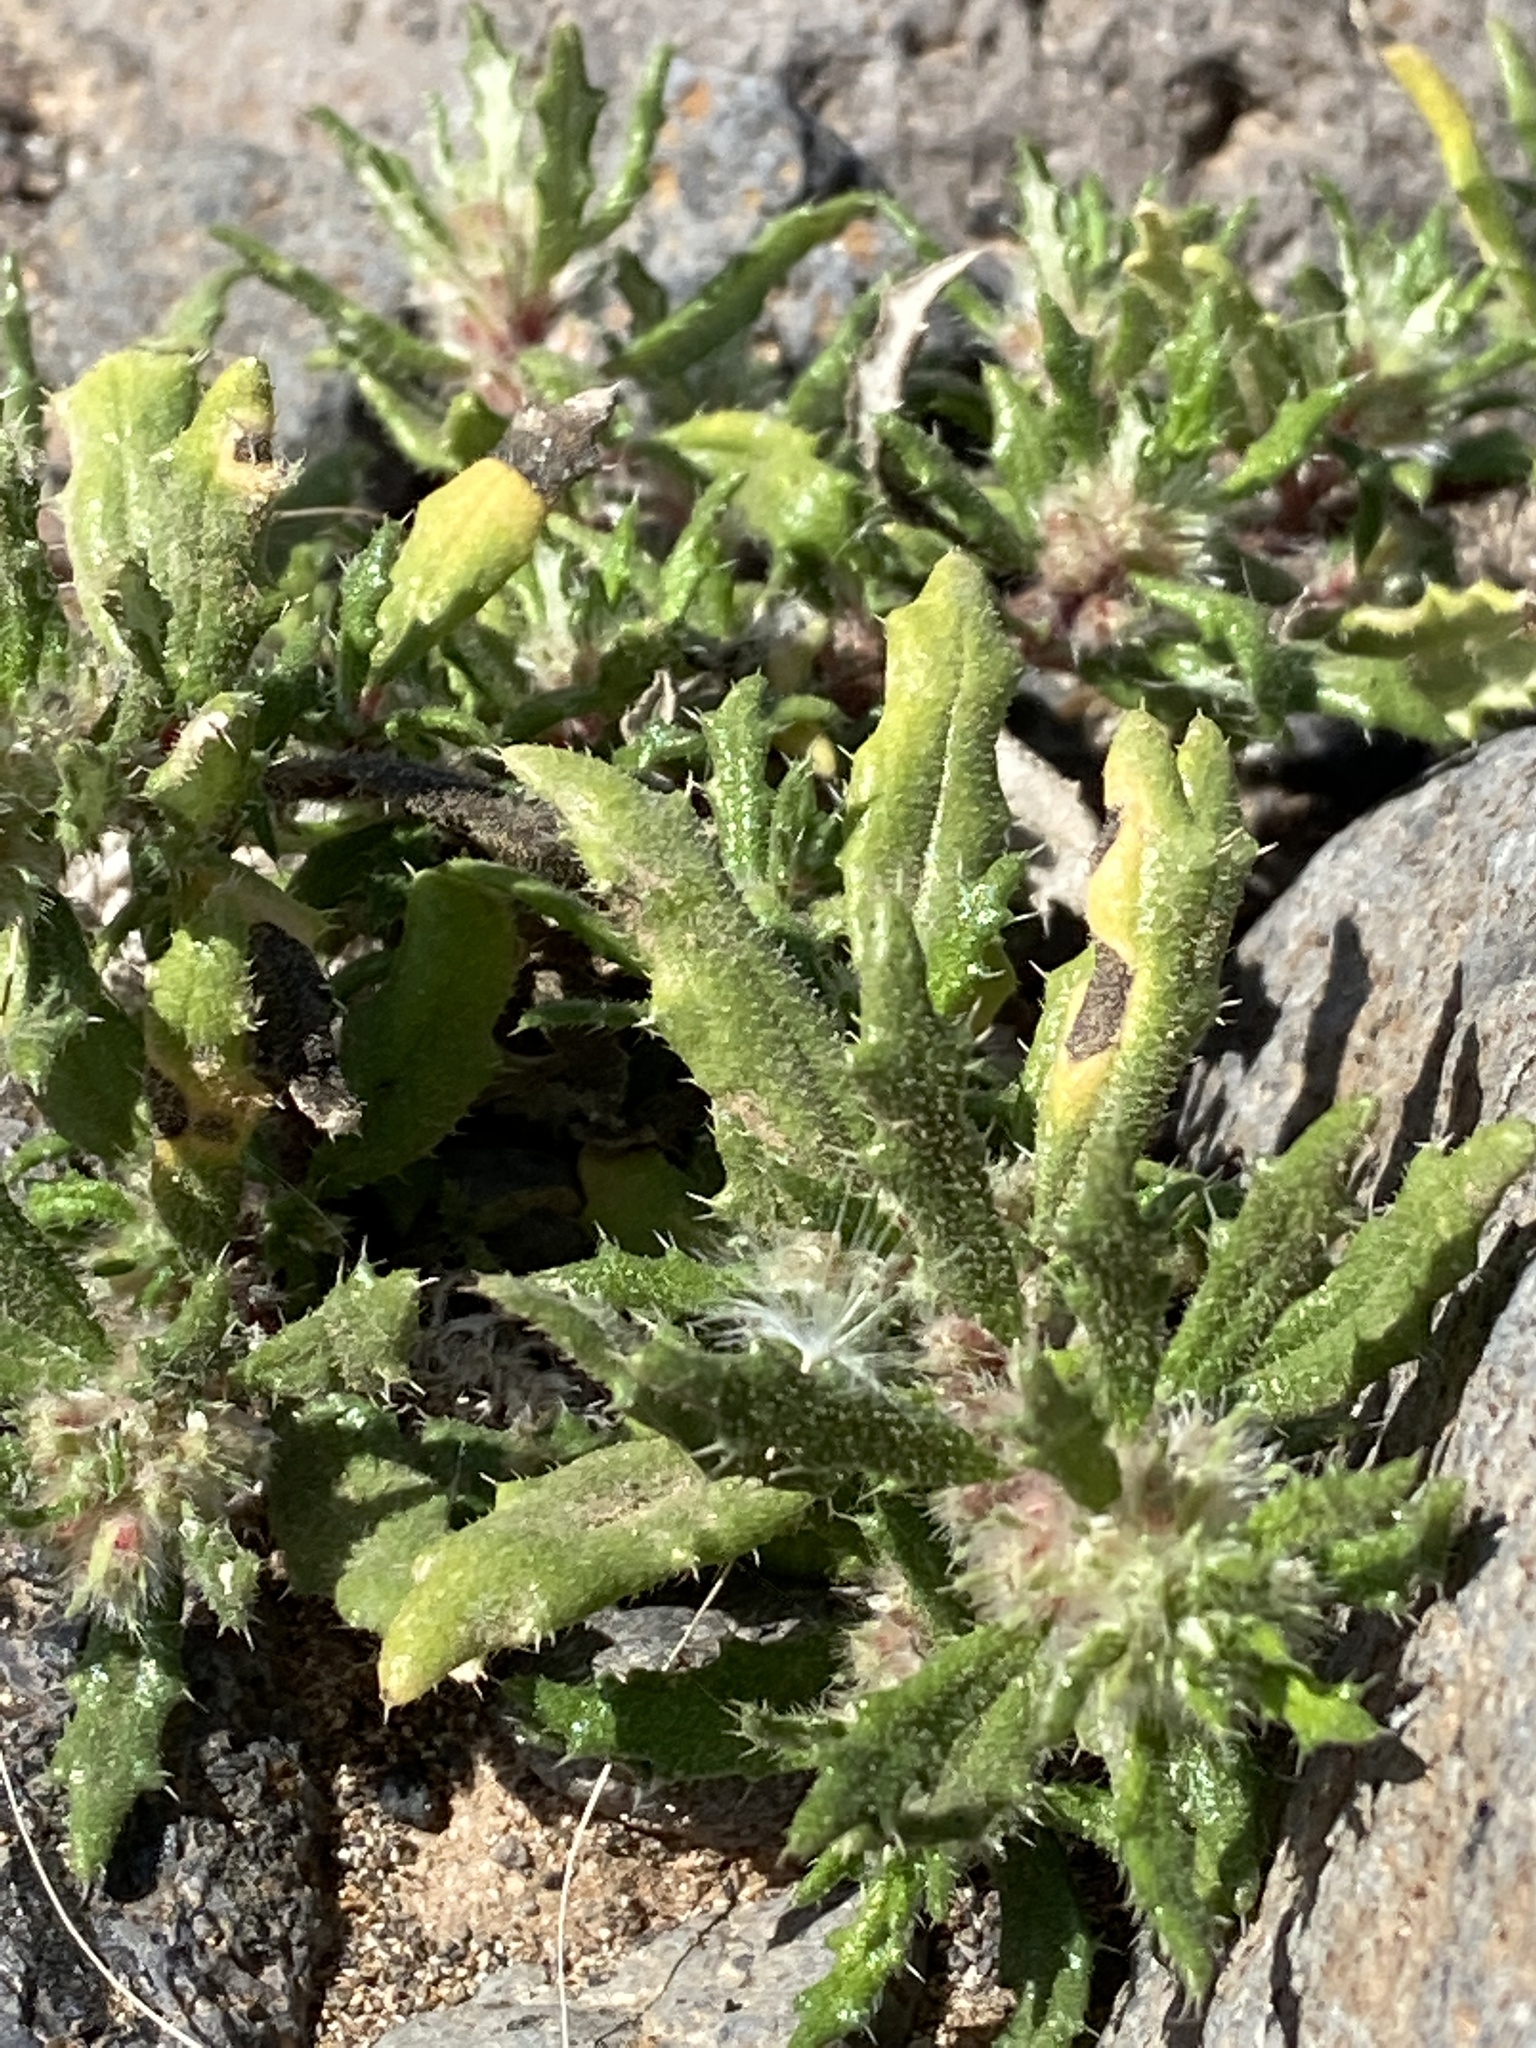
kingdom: Plantae
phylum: Tracheophyta
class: Magnoliopsida
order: Rosales
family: Urticaceae
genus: Forsskaolea
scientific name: Forsskaolea angustifolia
